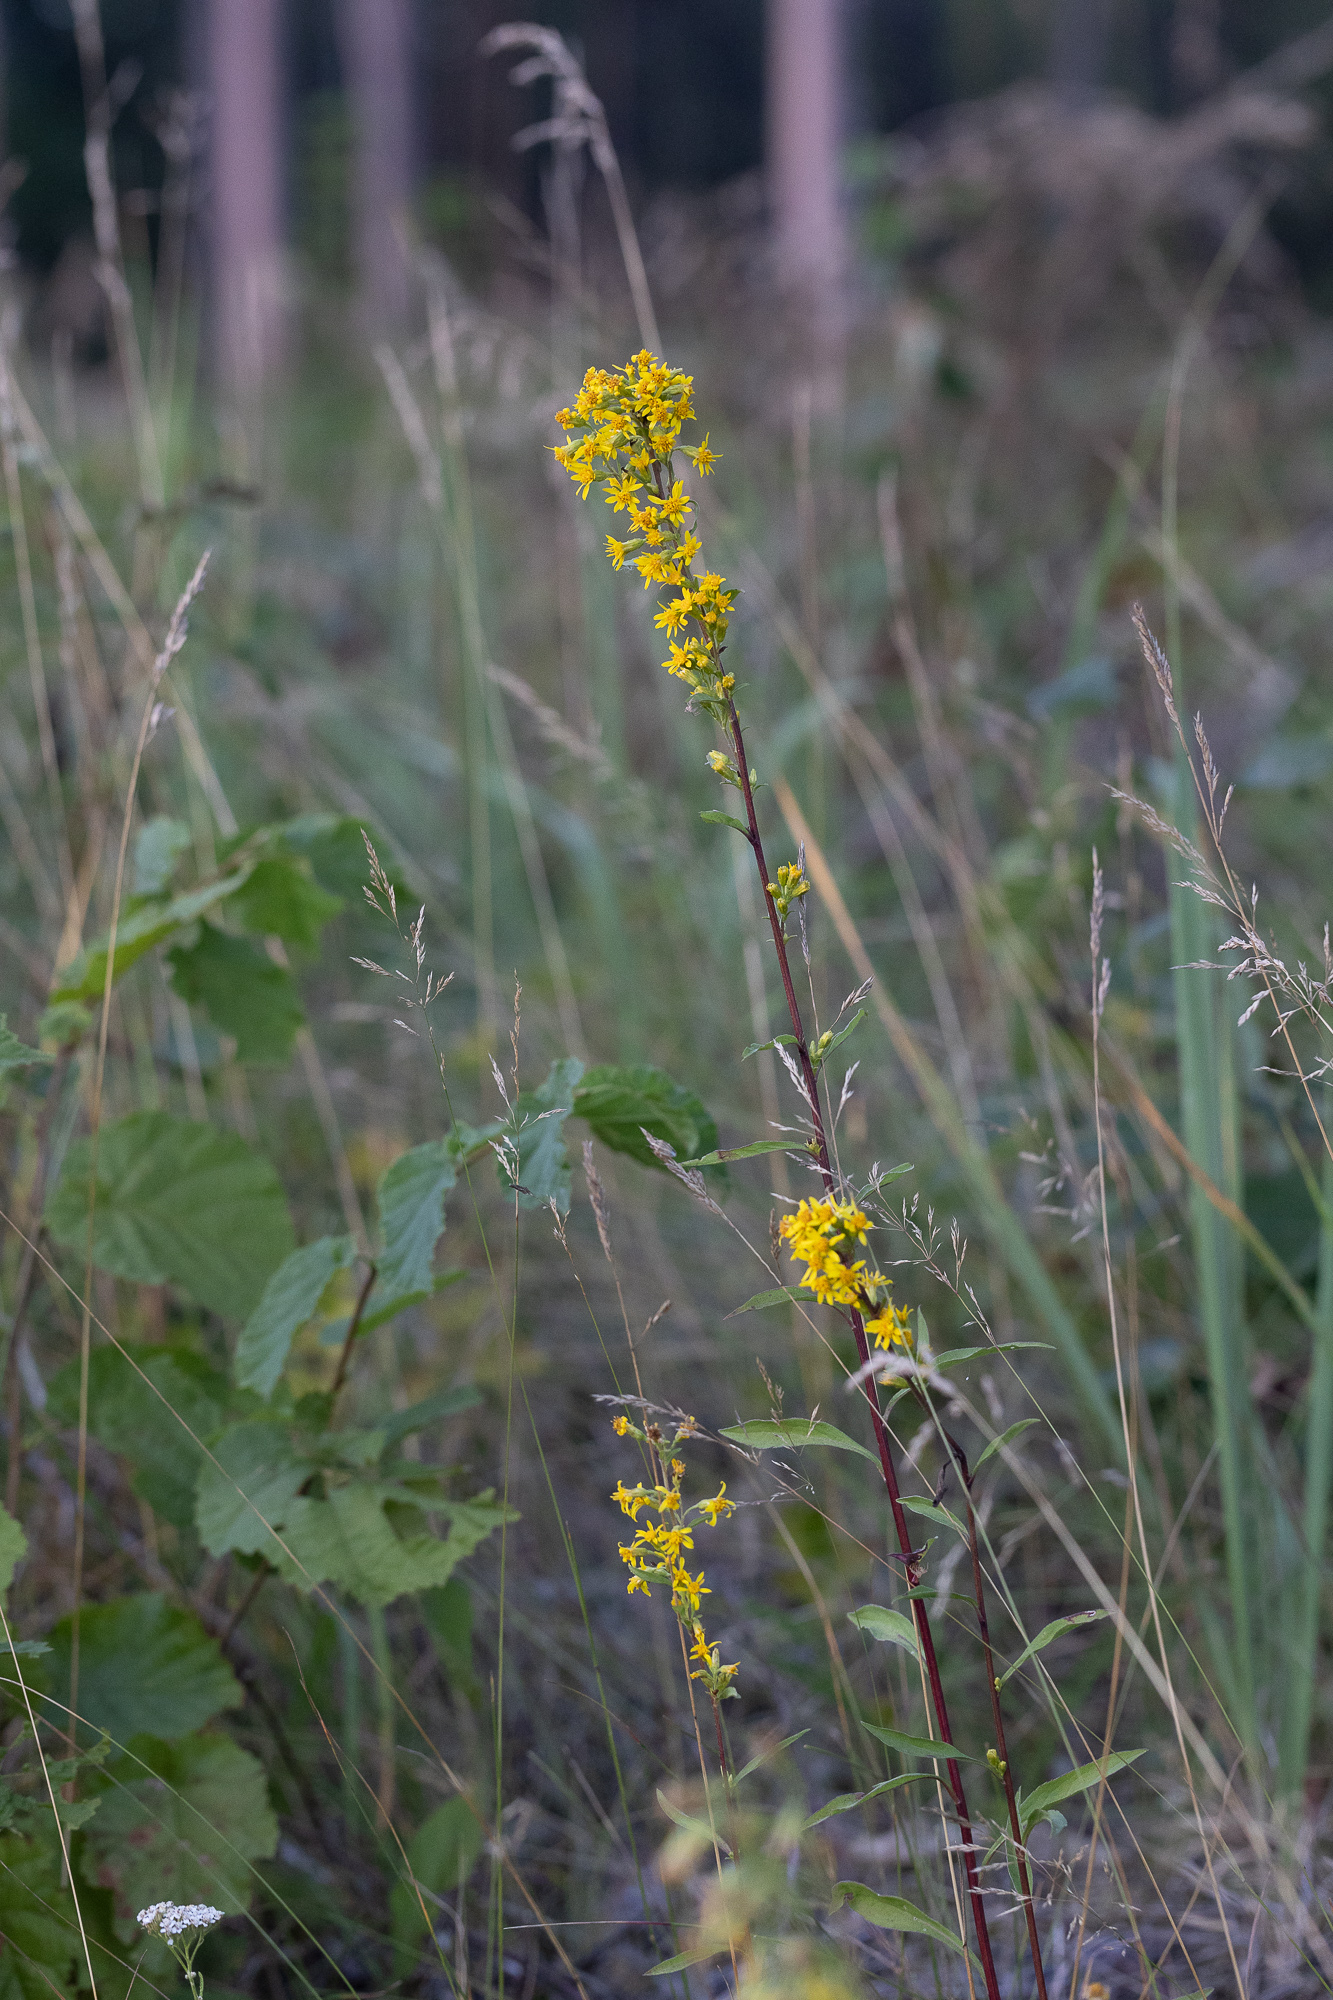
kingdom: Plantae
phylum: Tracheophyta
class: Magnoliopsida
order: Asterales
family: Asteraceae
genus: Solidago
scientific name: Solidago virgaurea
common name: Goldenrod
